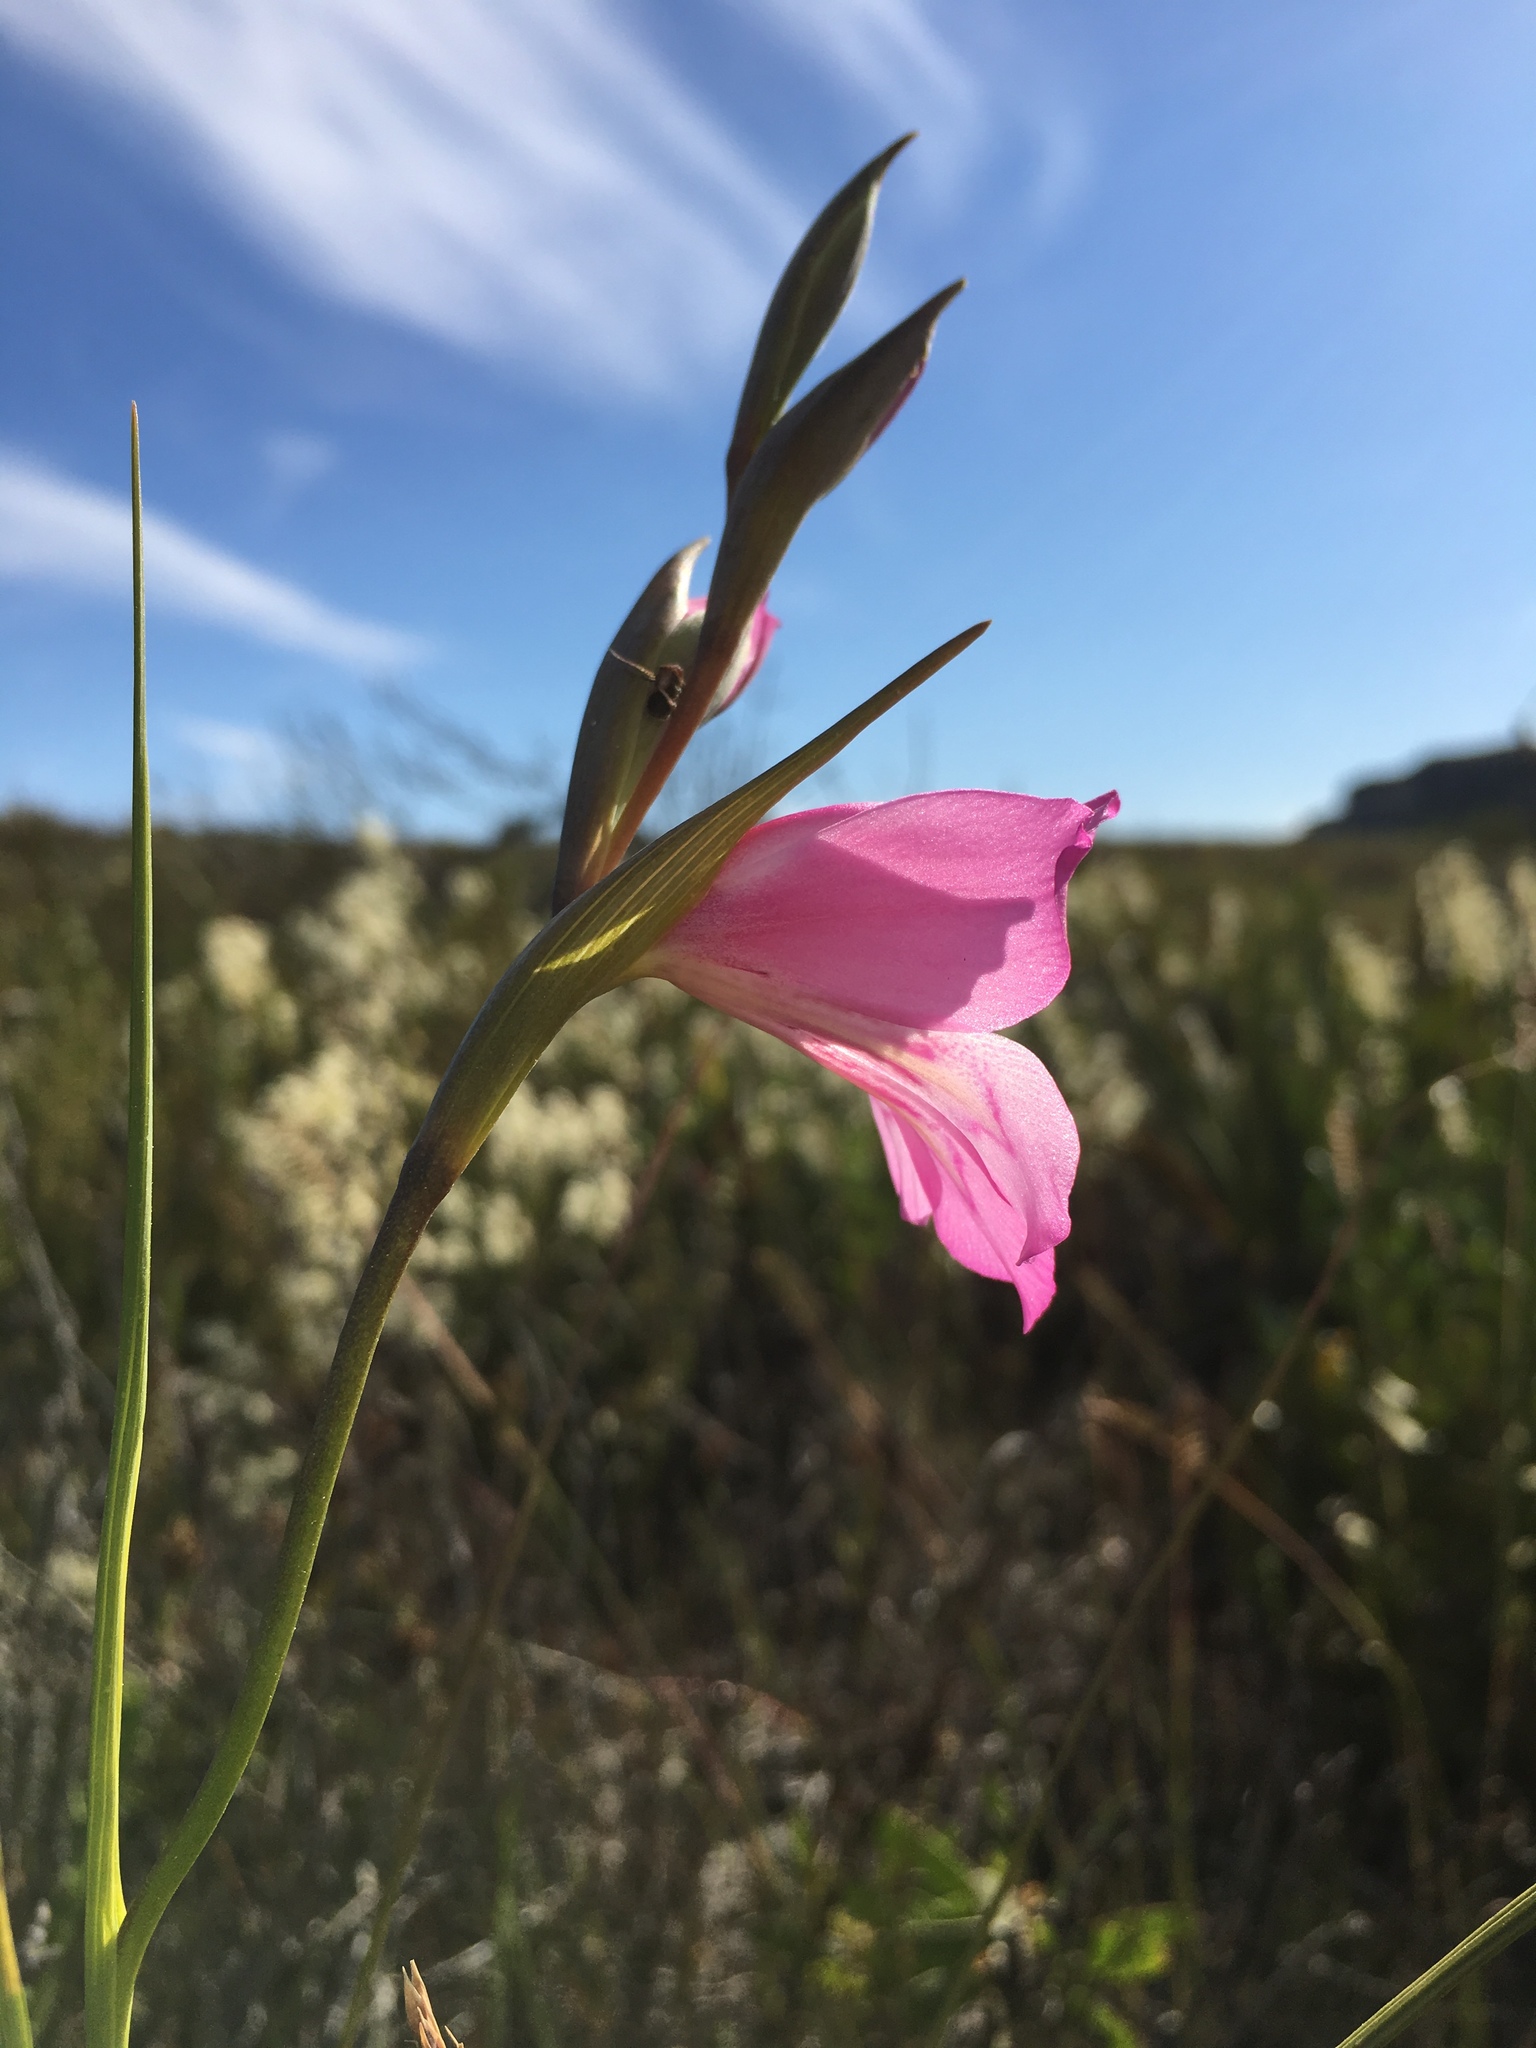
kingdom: Plantae
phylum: Tracheophyta
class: Liliopsida
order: Asparagales
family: Iridaceae
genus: Gladiolus
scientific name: Gladiolus ornatus
